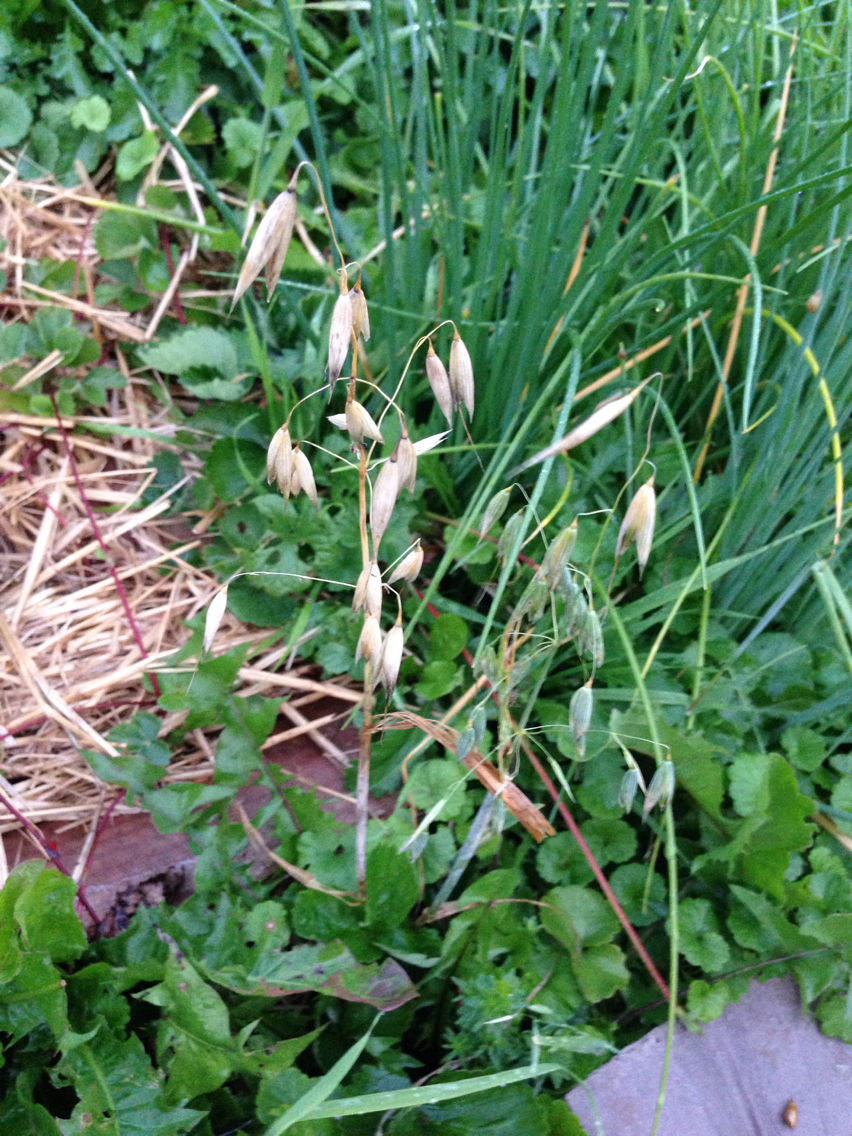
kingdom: Plantae
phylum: Tracheophyta
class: Liliopsida
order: Poales
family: Poaceae
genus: Avena
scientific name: Avena sativa
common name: Oat
